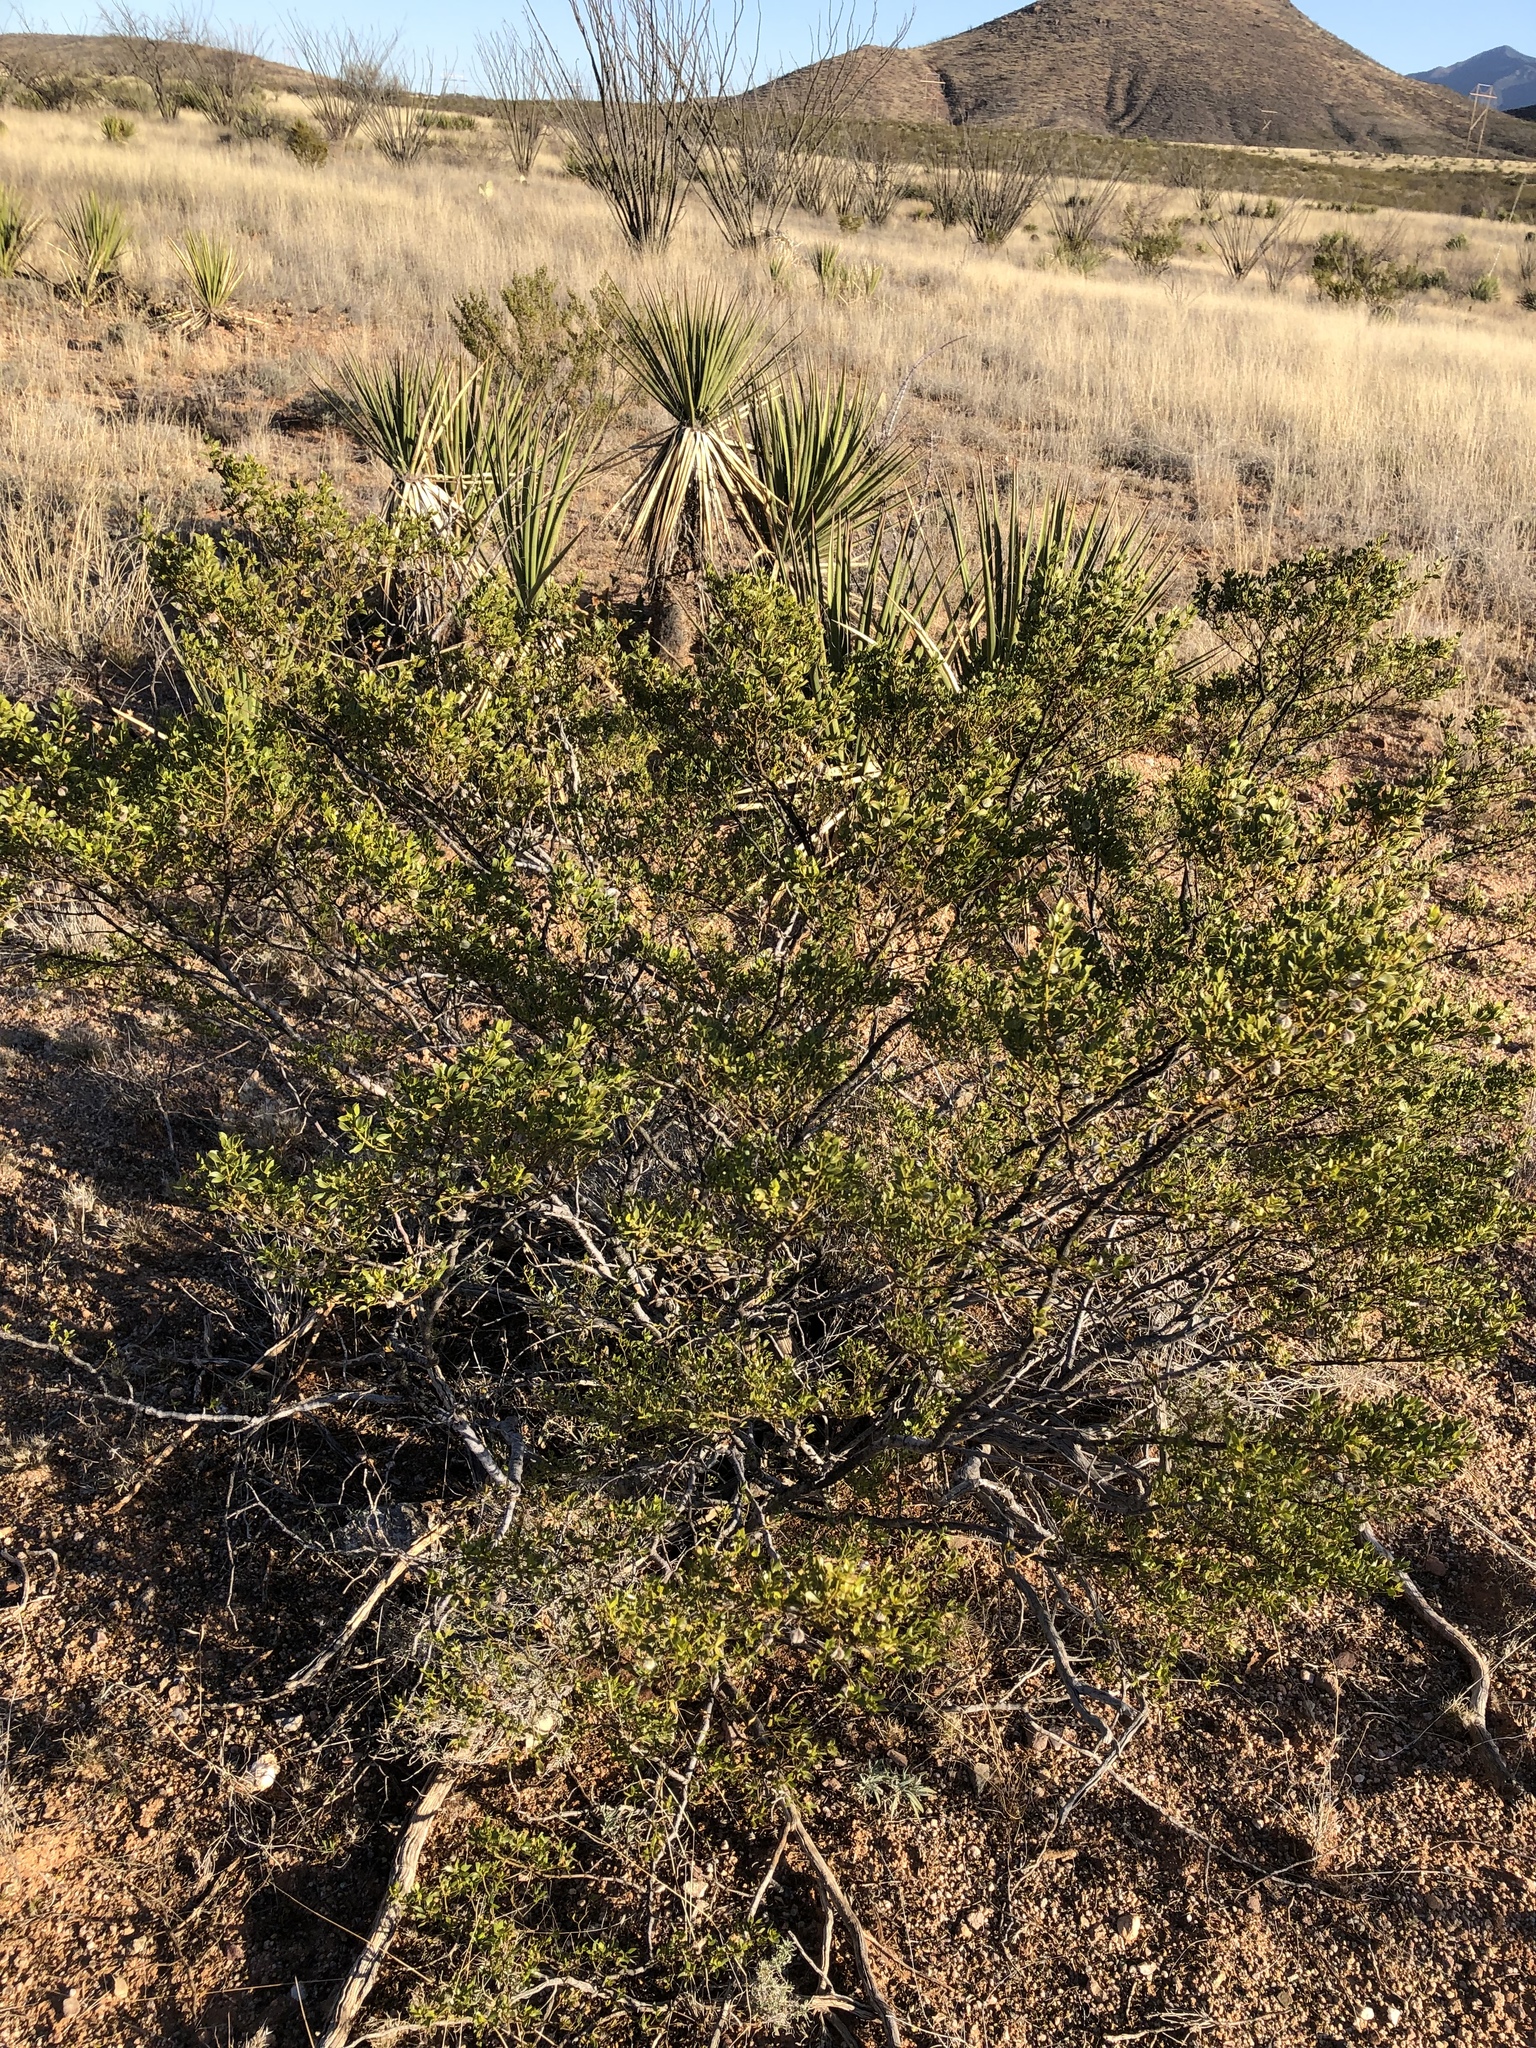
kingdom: Plantae
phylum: Tracheophyta
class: Magnoliopsida
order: Zygophyllales
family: Zygophyllaceae
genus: Larrea
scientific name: Larrea tridentata
